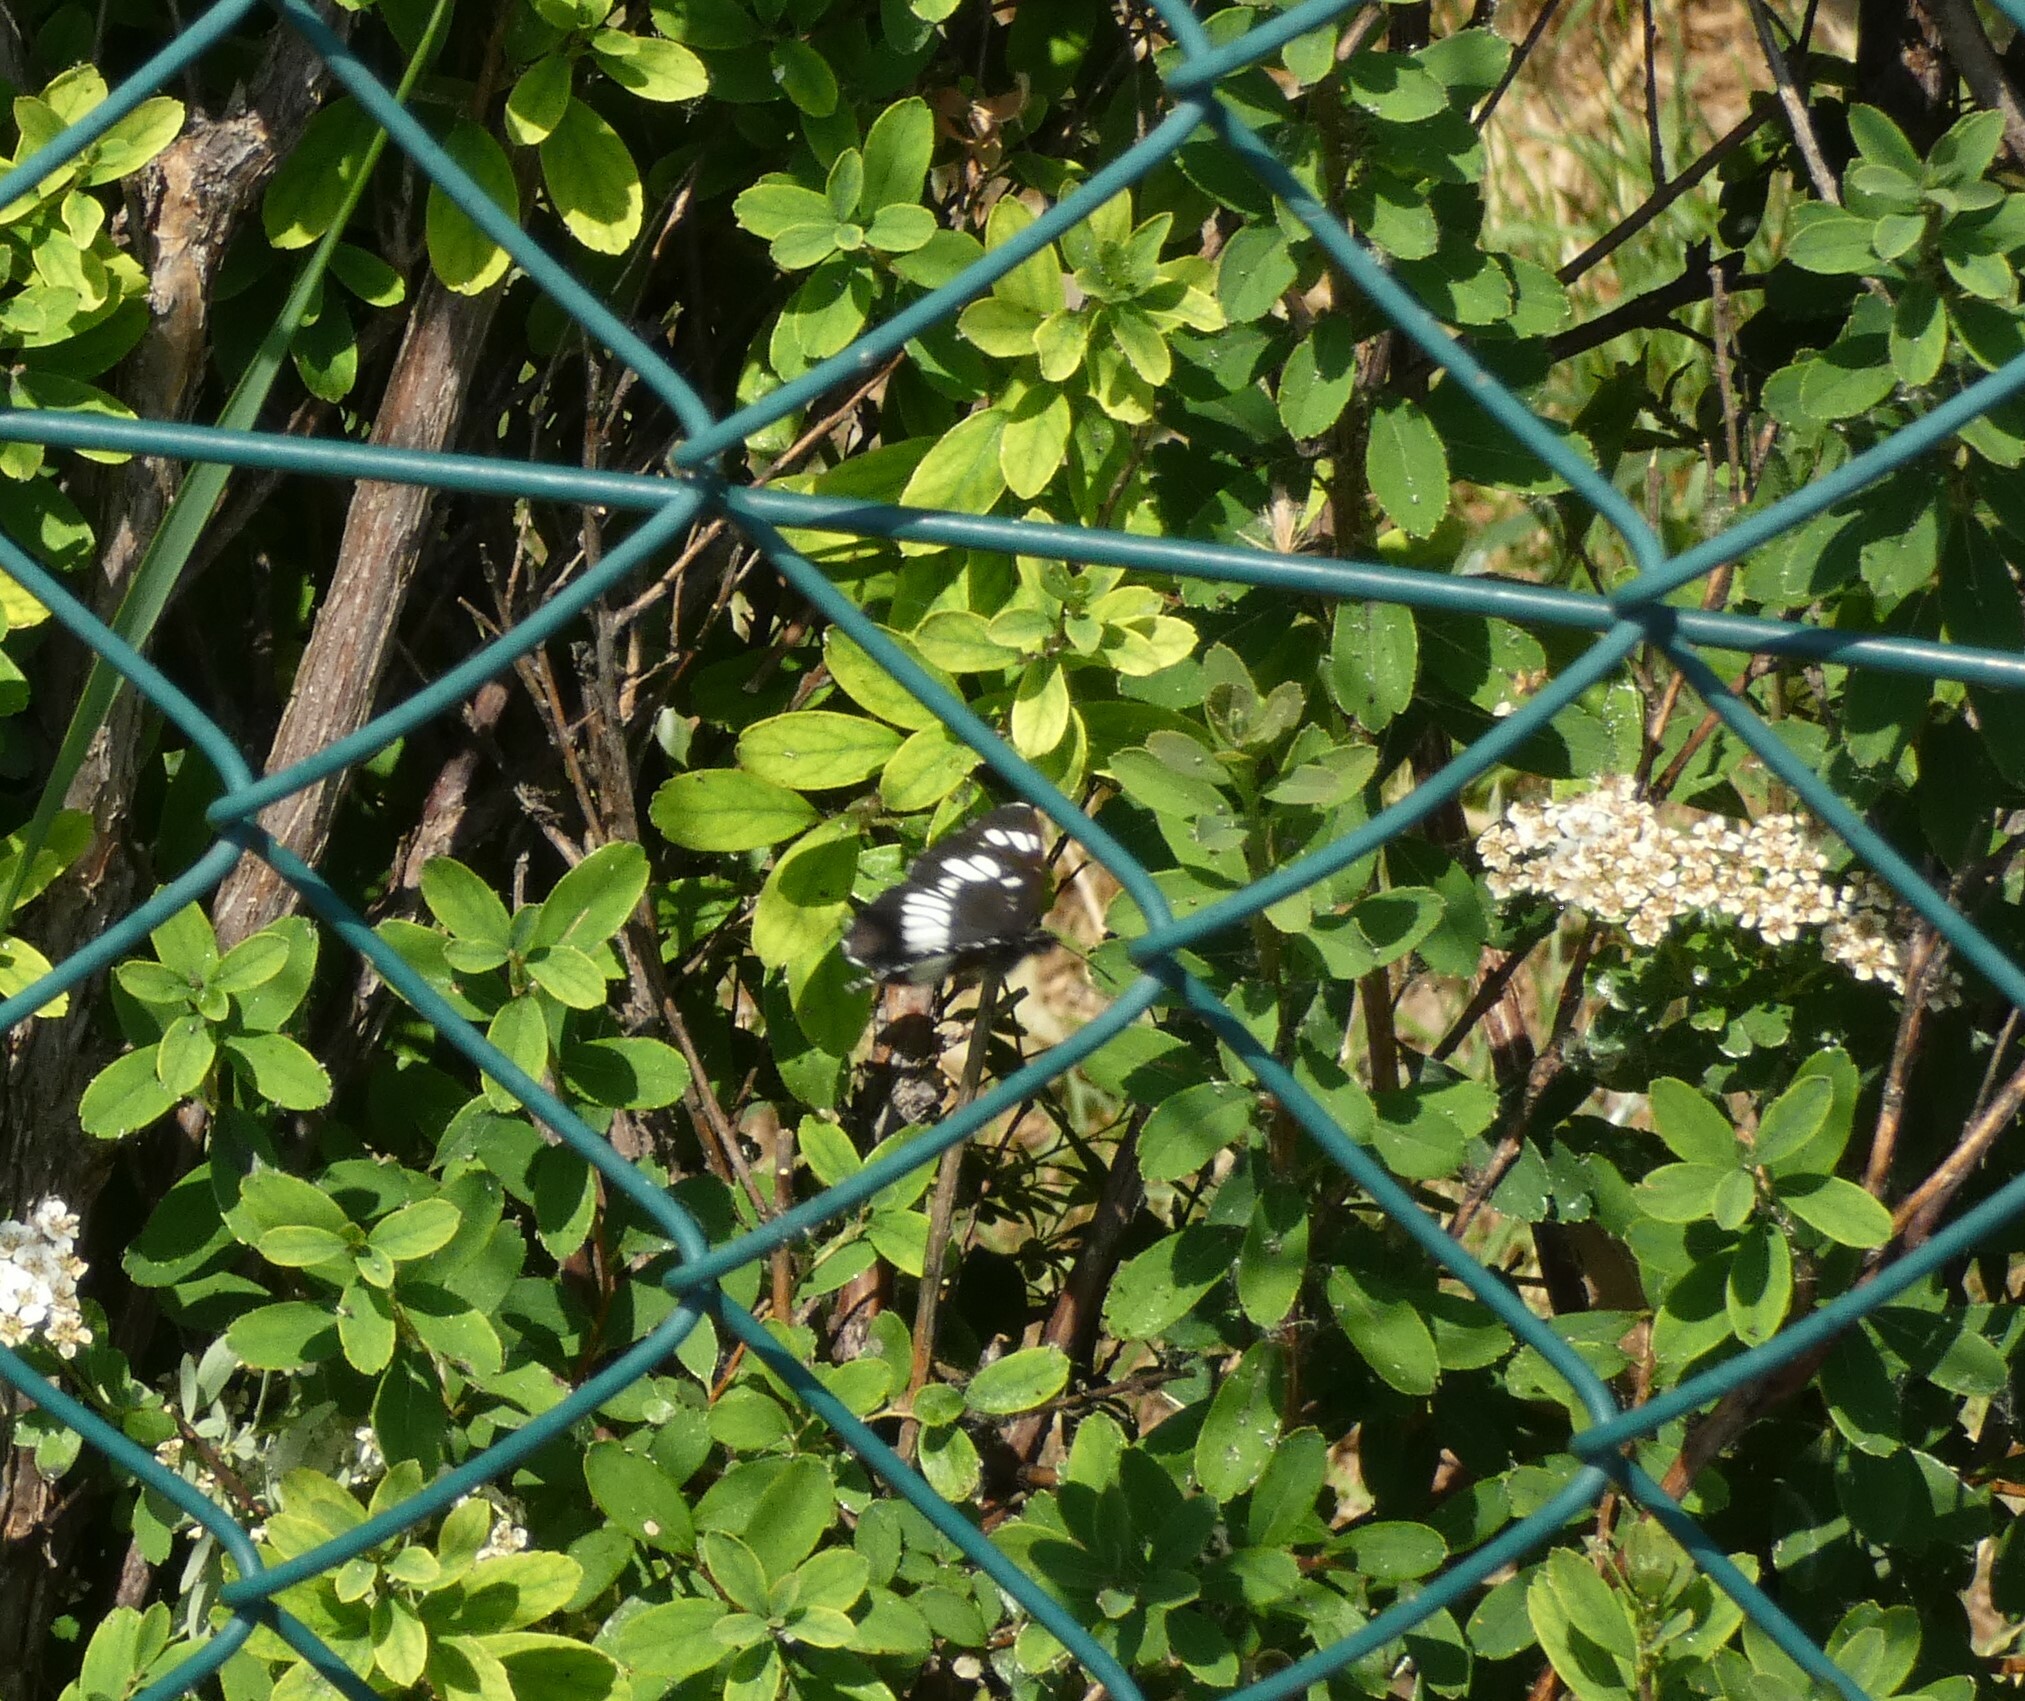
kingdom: Animalia
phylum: Arthropoda
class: Insecta
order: Lepidoptera
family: Nymphalidae
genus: Neptis
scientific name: Neptis rivularis
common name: Hungarian glider
